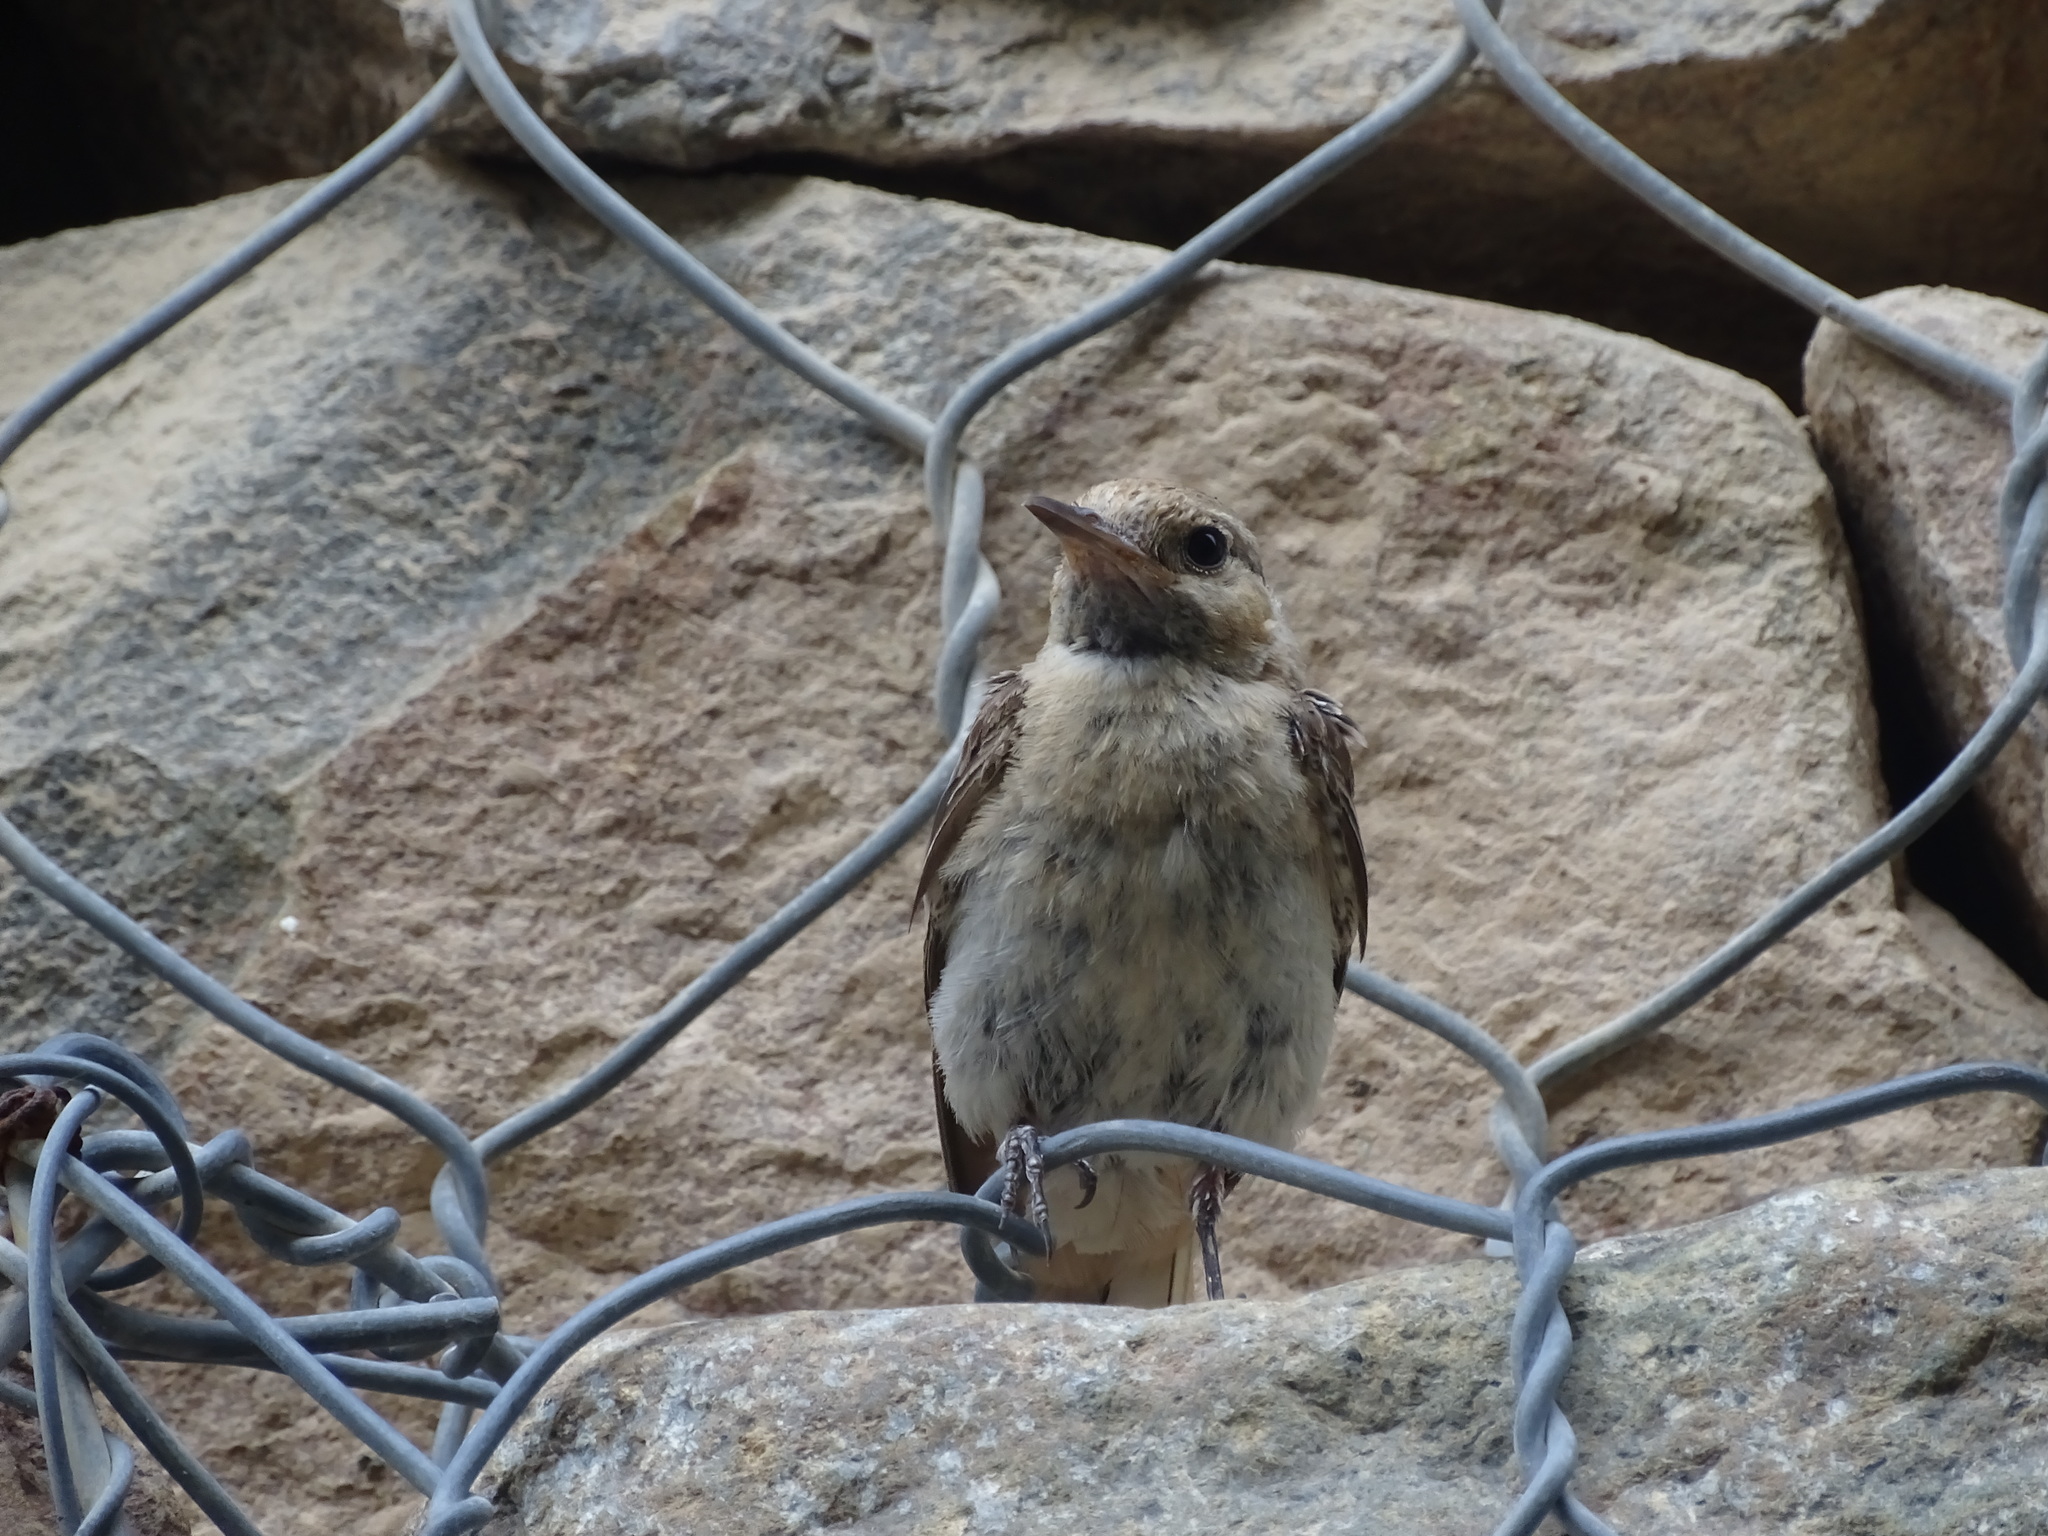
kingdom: Animalia
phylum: Chordata
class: Aves
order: Passeriformes
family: Muscicapidae
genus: Oenanthe
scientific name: Oenanthe monacha
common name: Hooded wheatear
